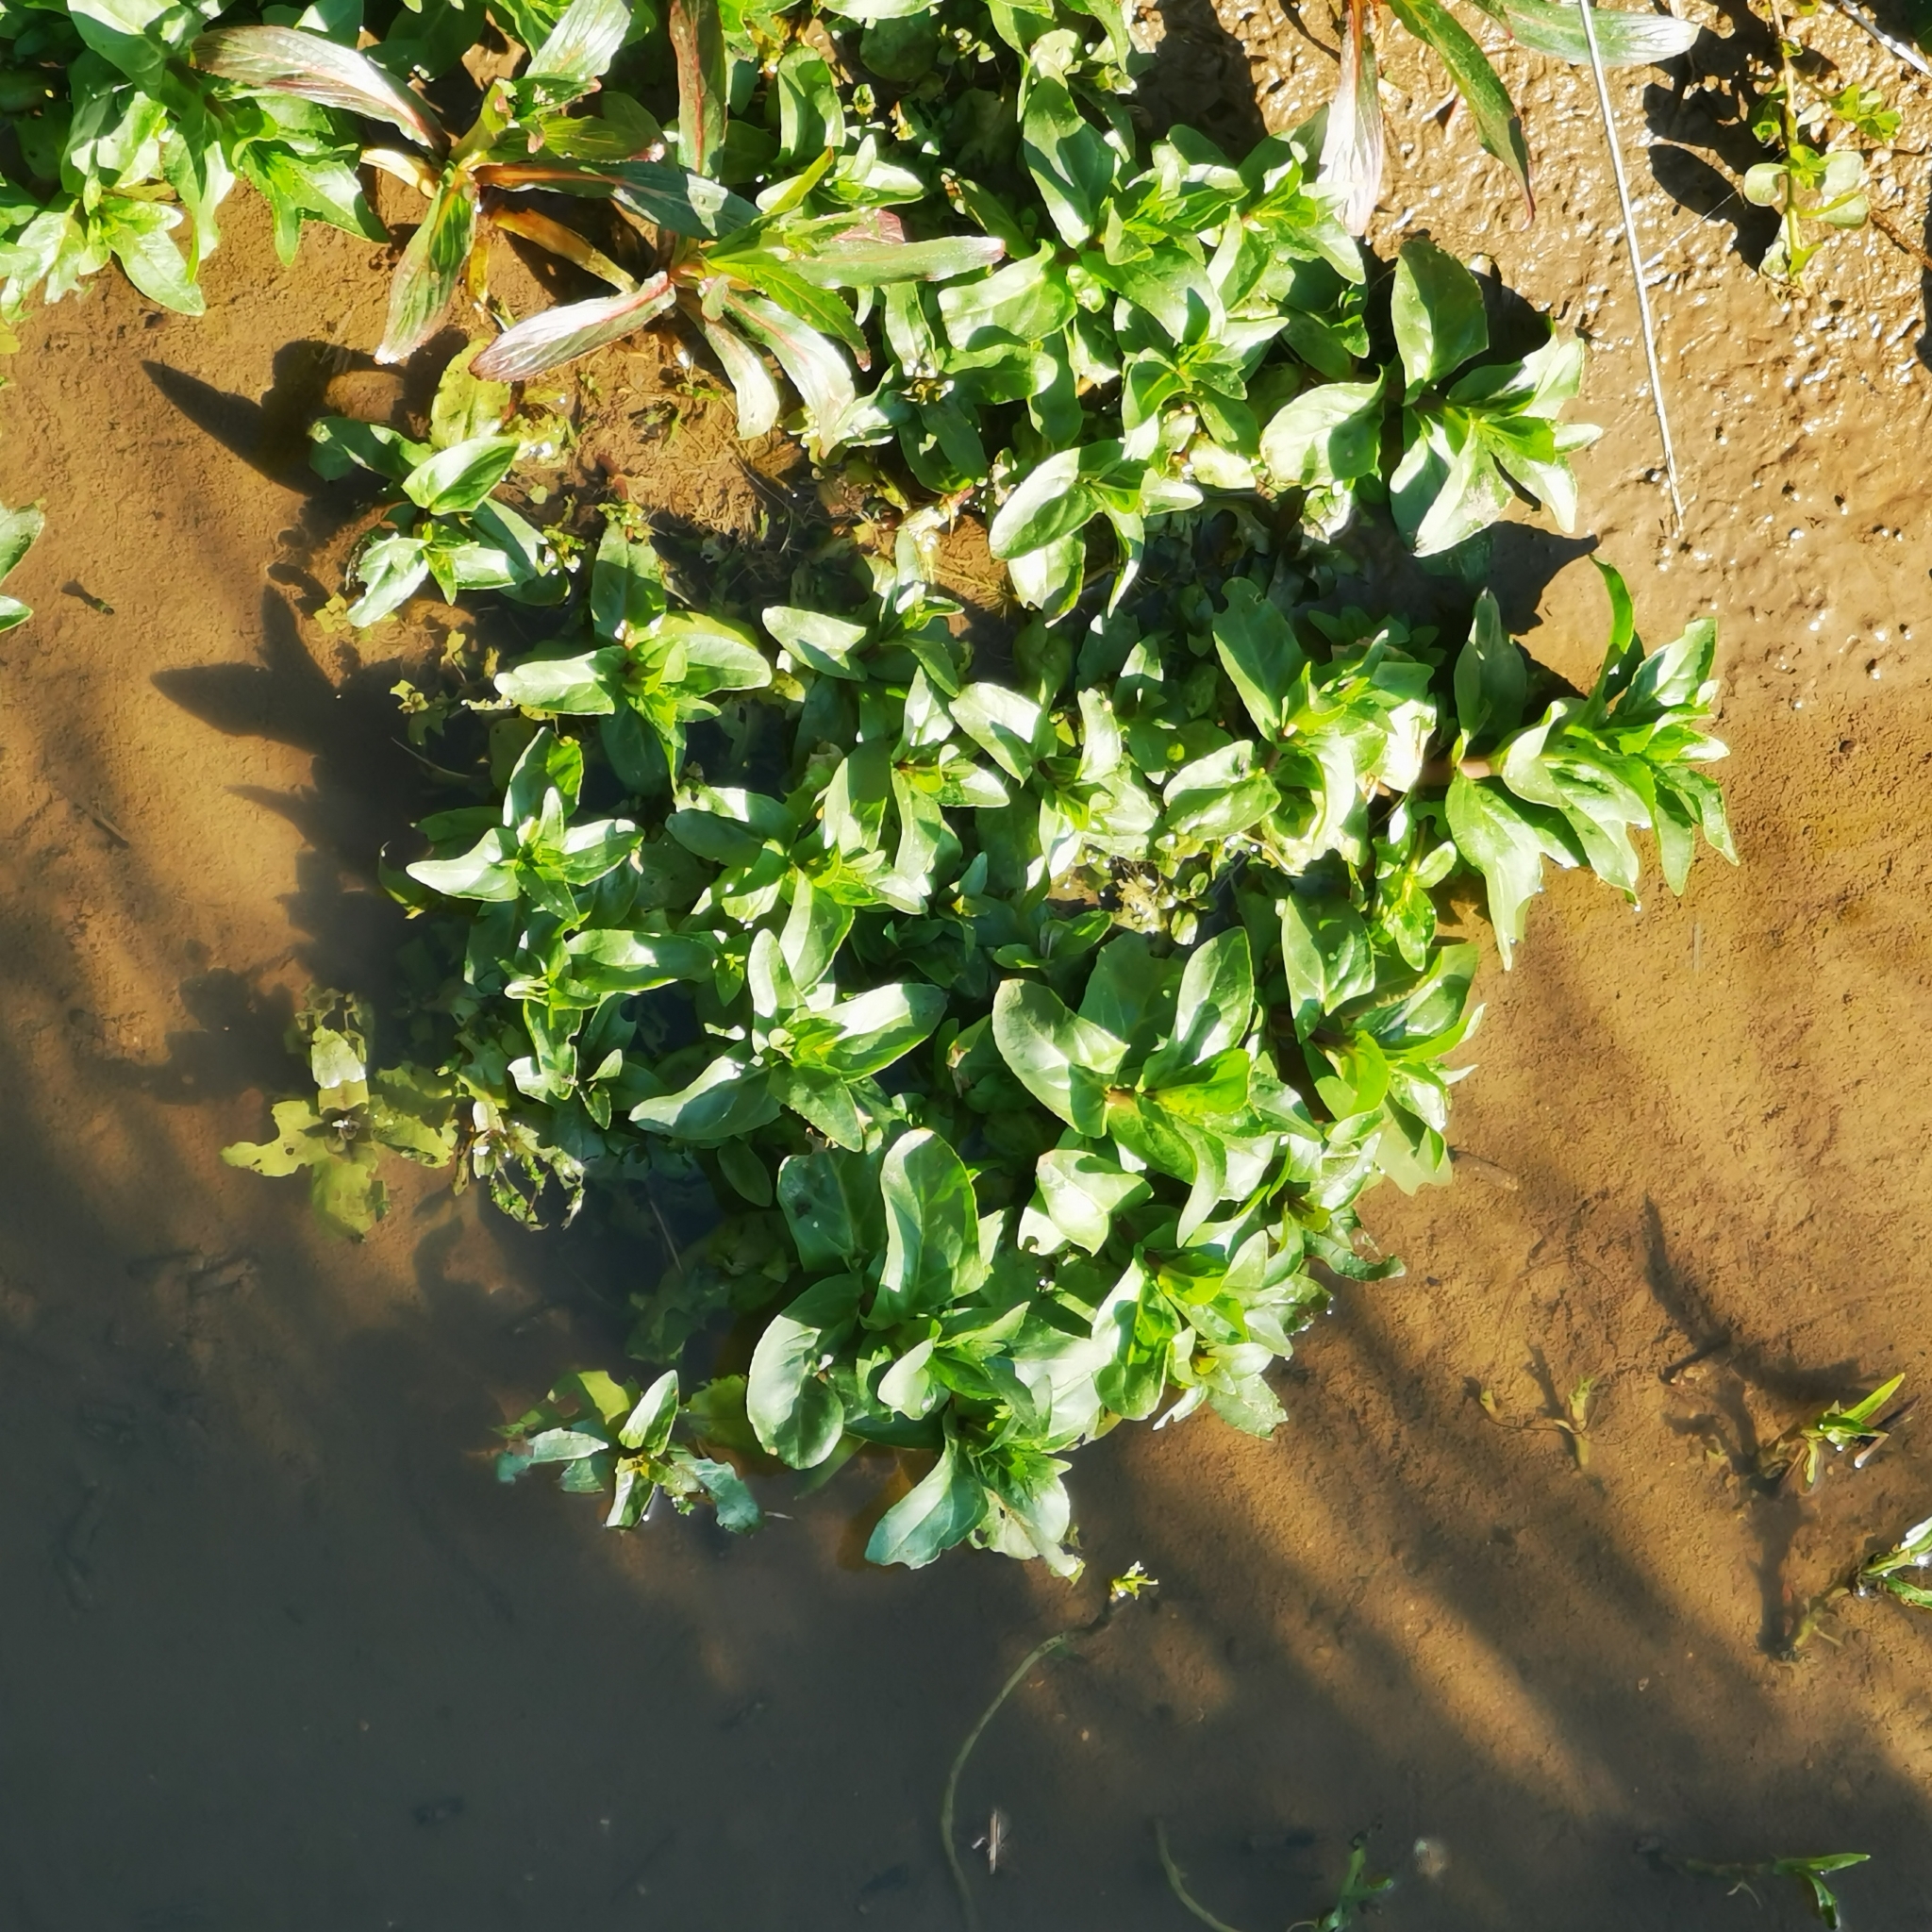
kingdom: Plantae
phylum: Tracheophyta
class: Magnoliopsida
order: Lamiales
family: Plantaginaceae
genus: Veronica
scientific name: Veronica beccabunga
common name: Brooklime
